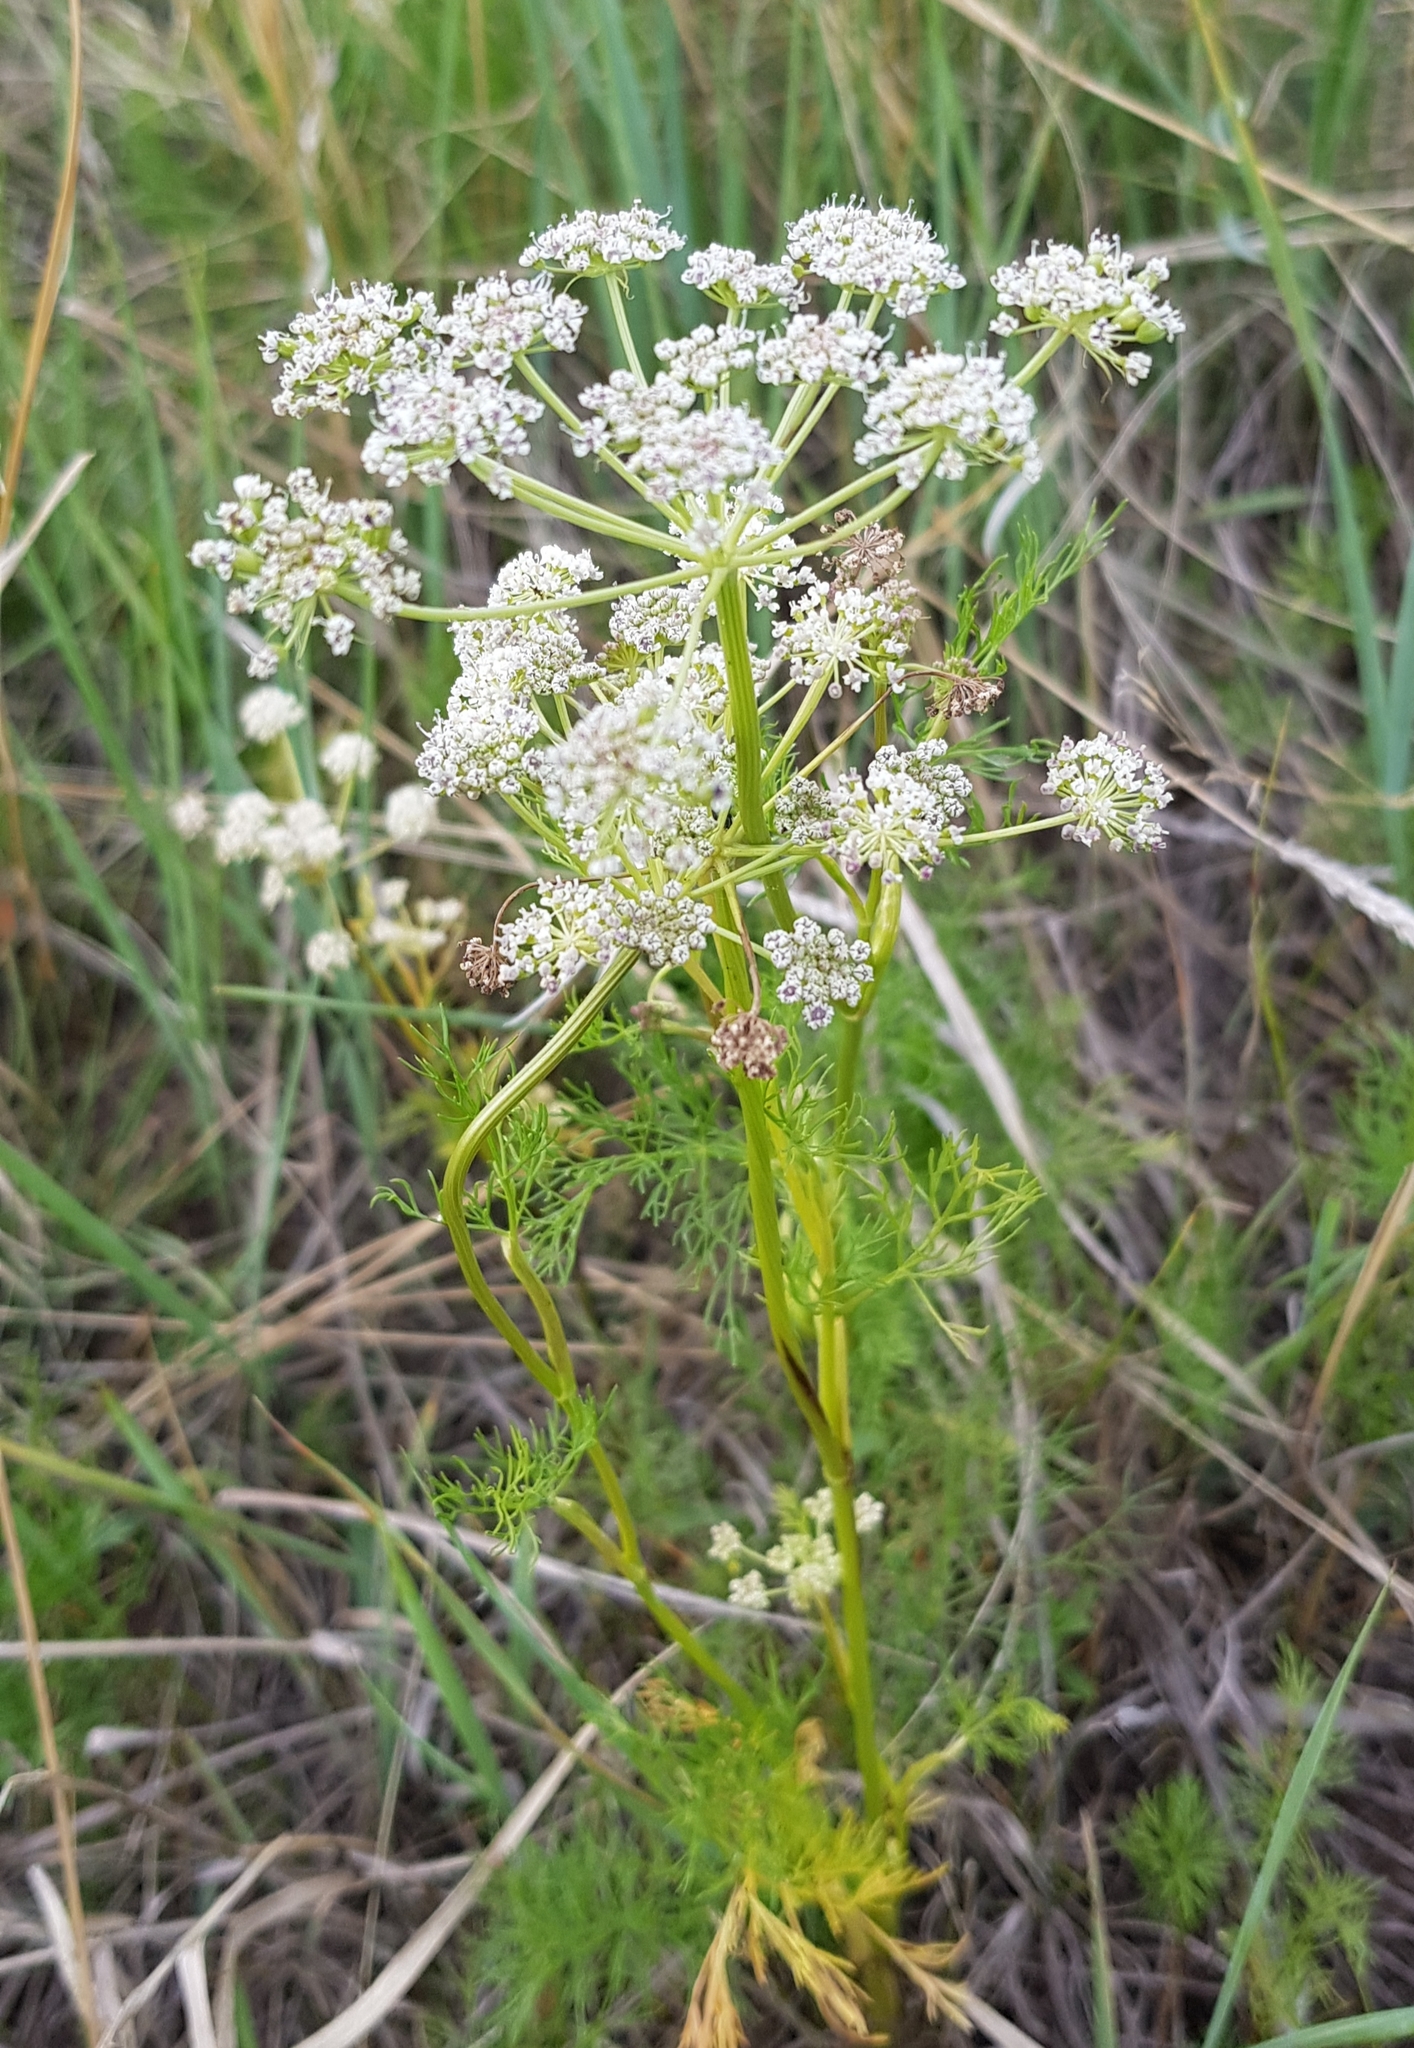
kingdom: Plantae
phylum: Tracheophyta
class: Magnoliopsida
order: Apiales
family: Apiaceae
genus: Carum
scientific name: Carum carvi
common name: Caraway
